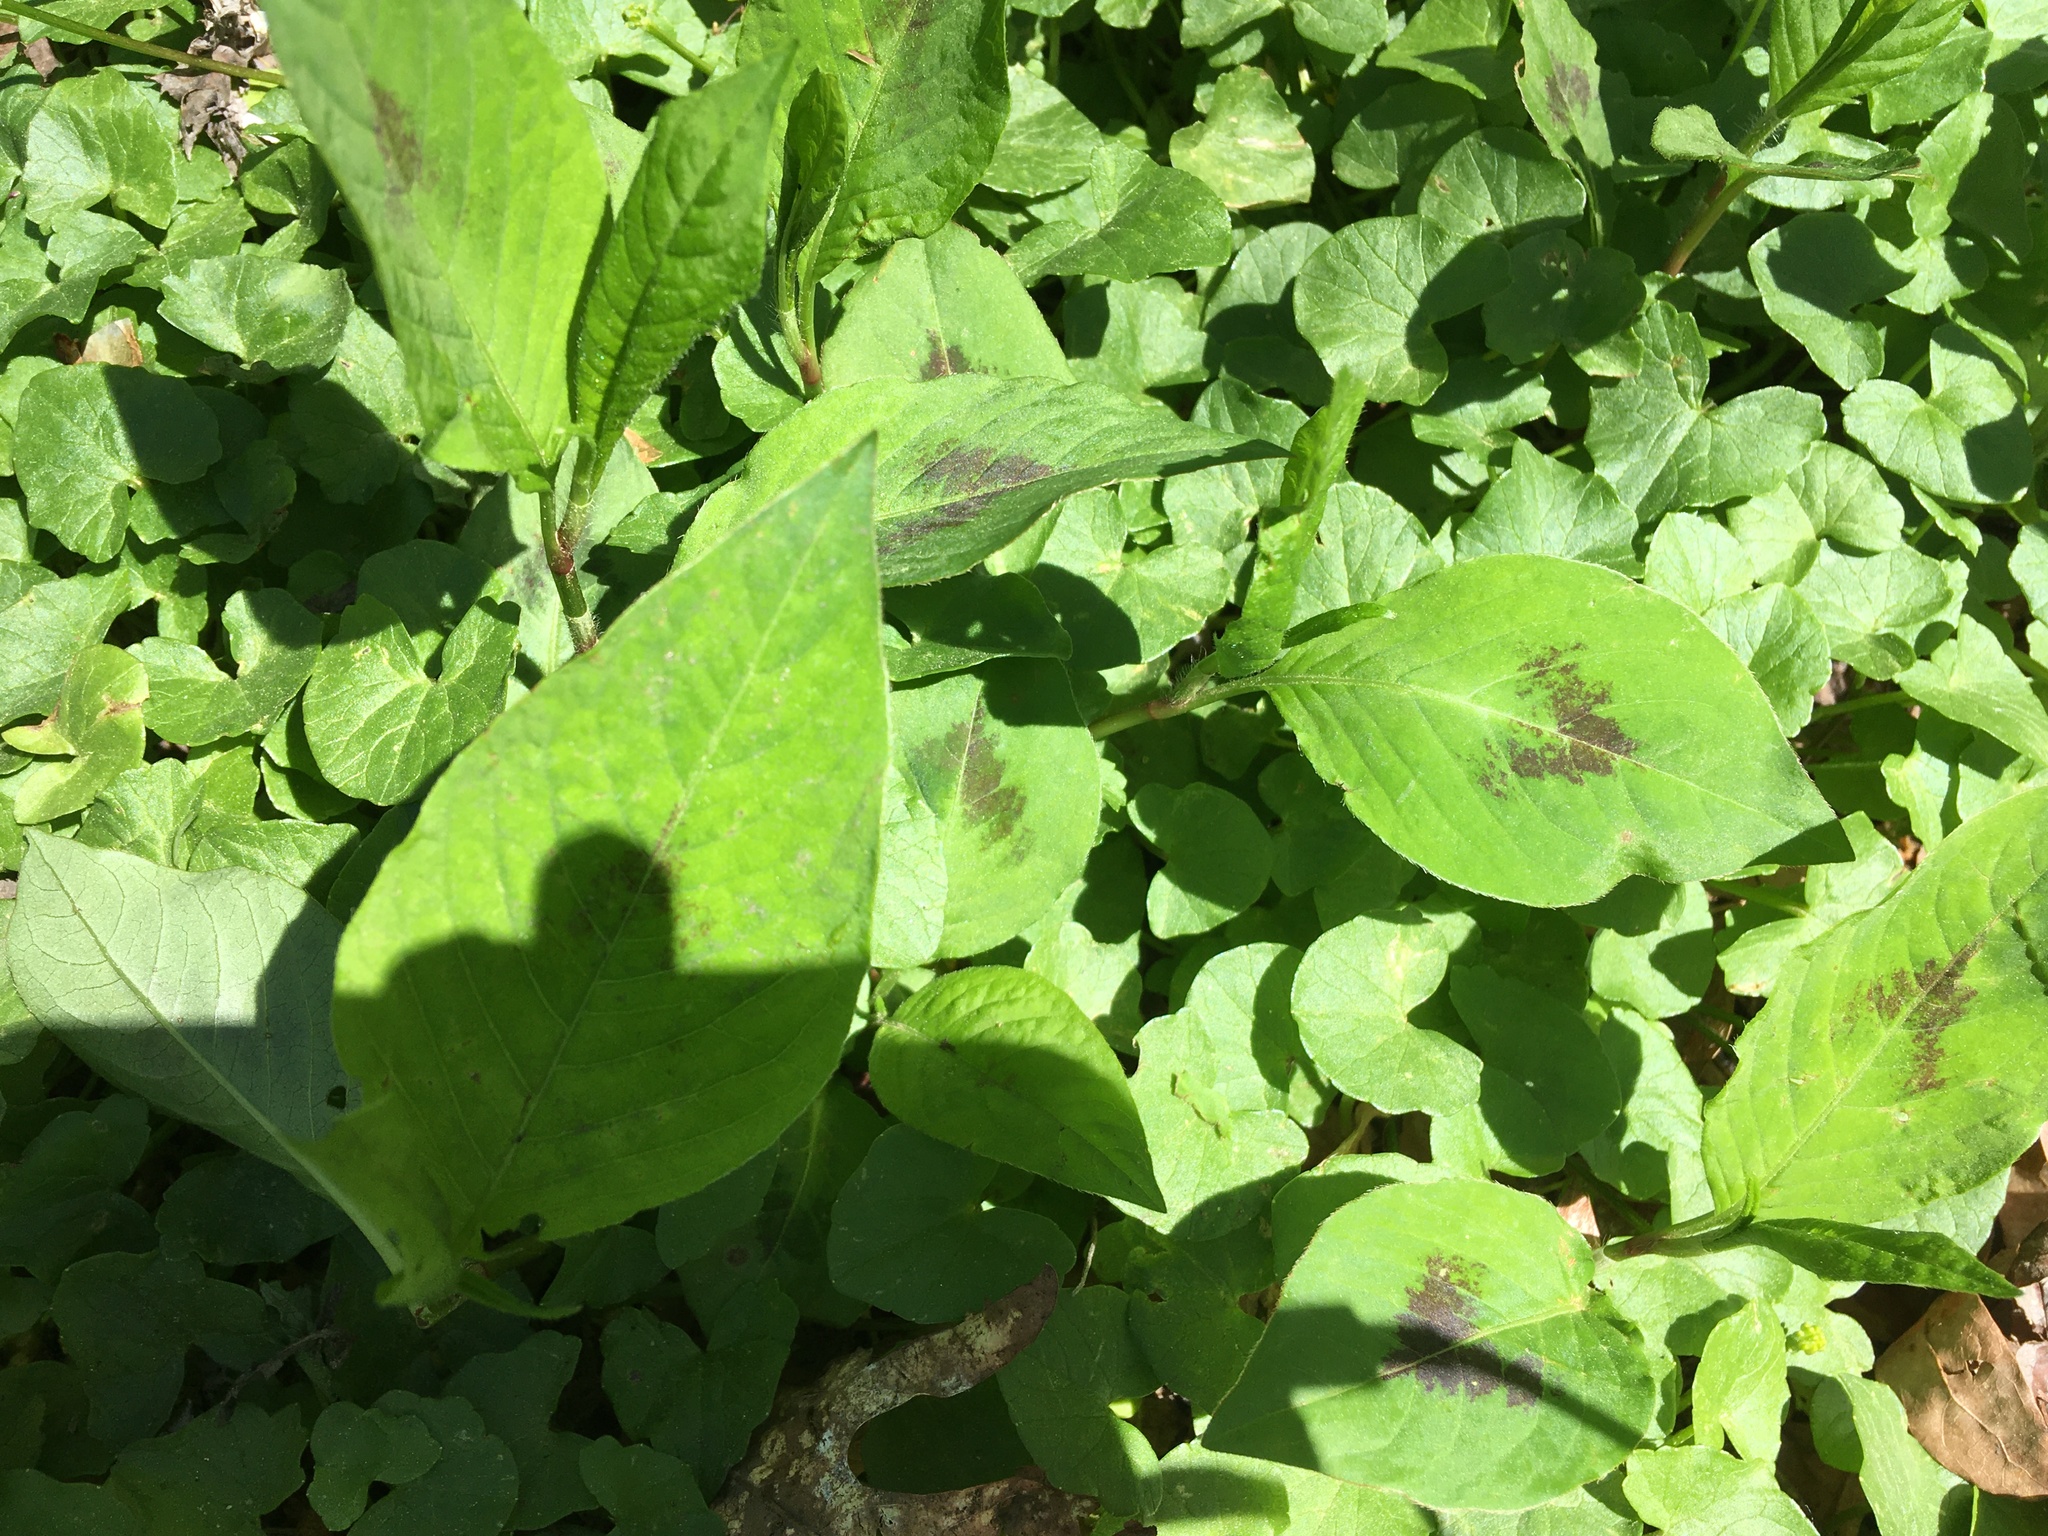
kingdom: Plantae
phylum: Tracheophyta
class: Magnoliopsida
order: Caryophyllales
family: Polygonaceae
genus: Persicaria
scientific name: Persicaria virginiana
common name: Jumpseed
